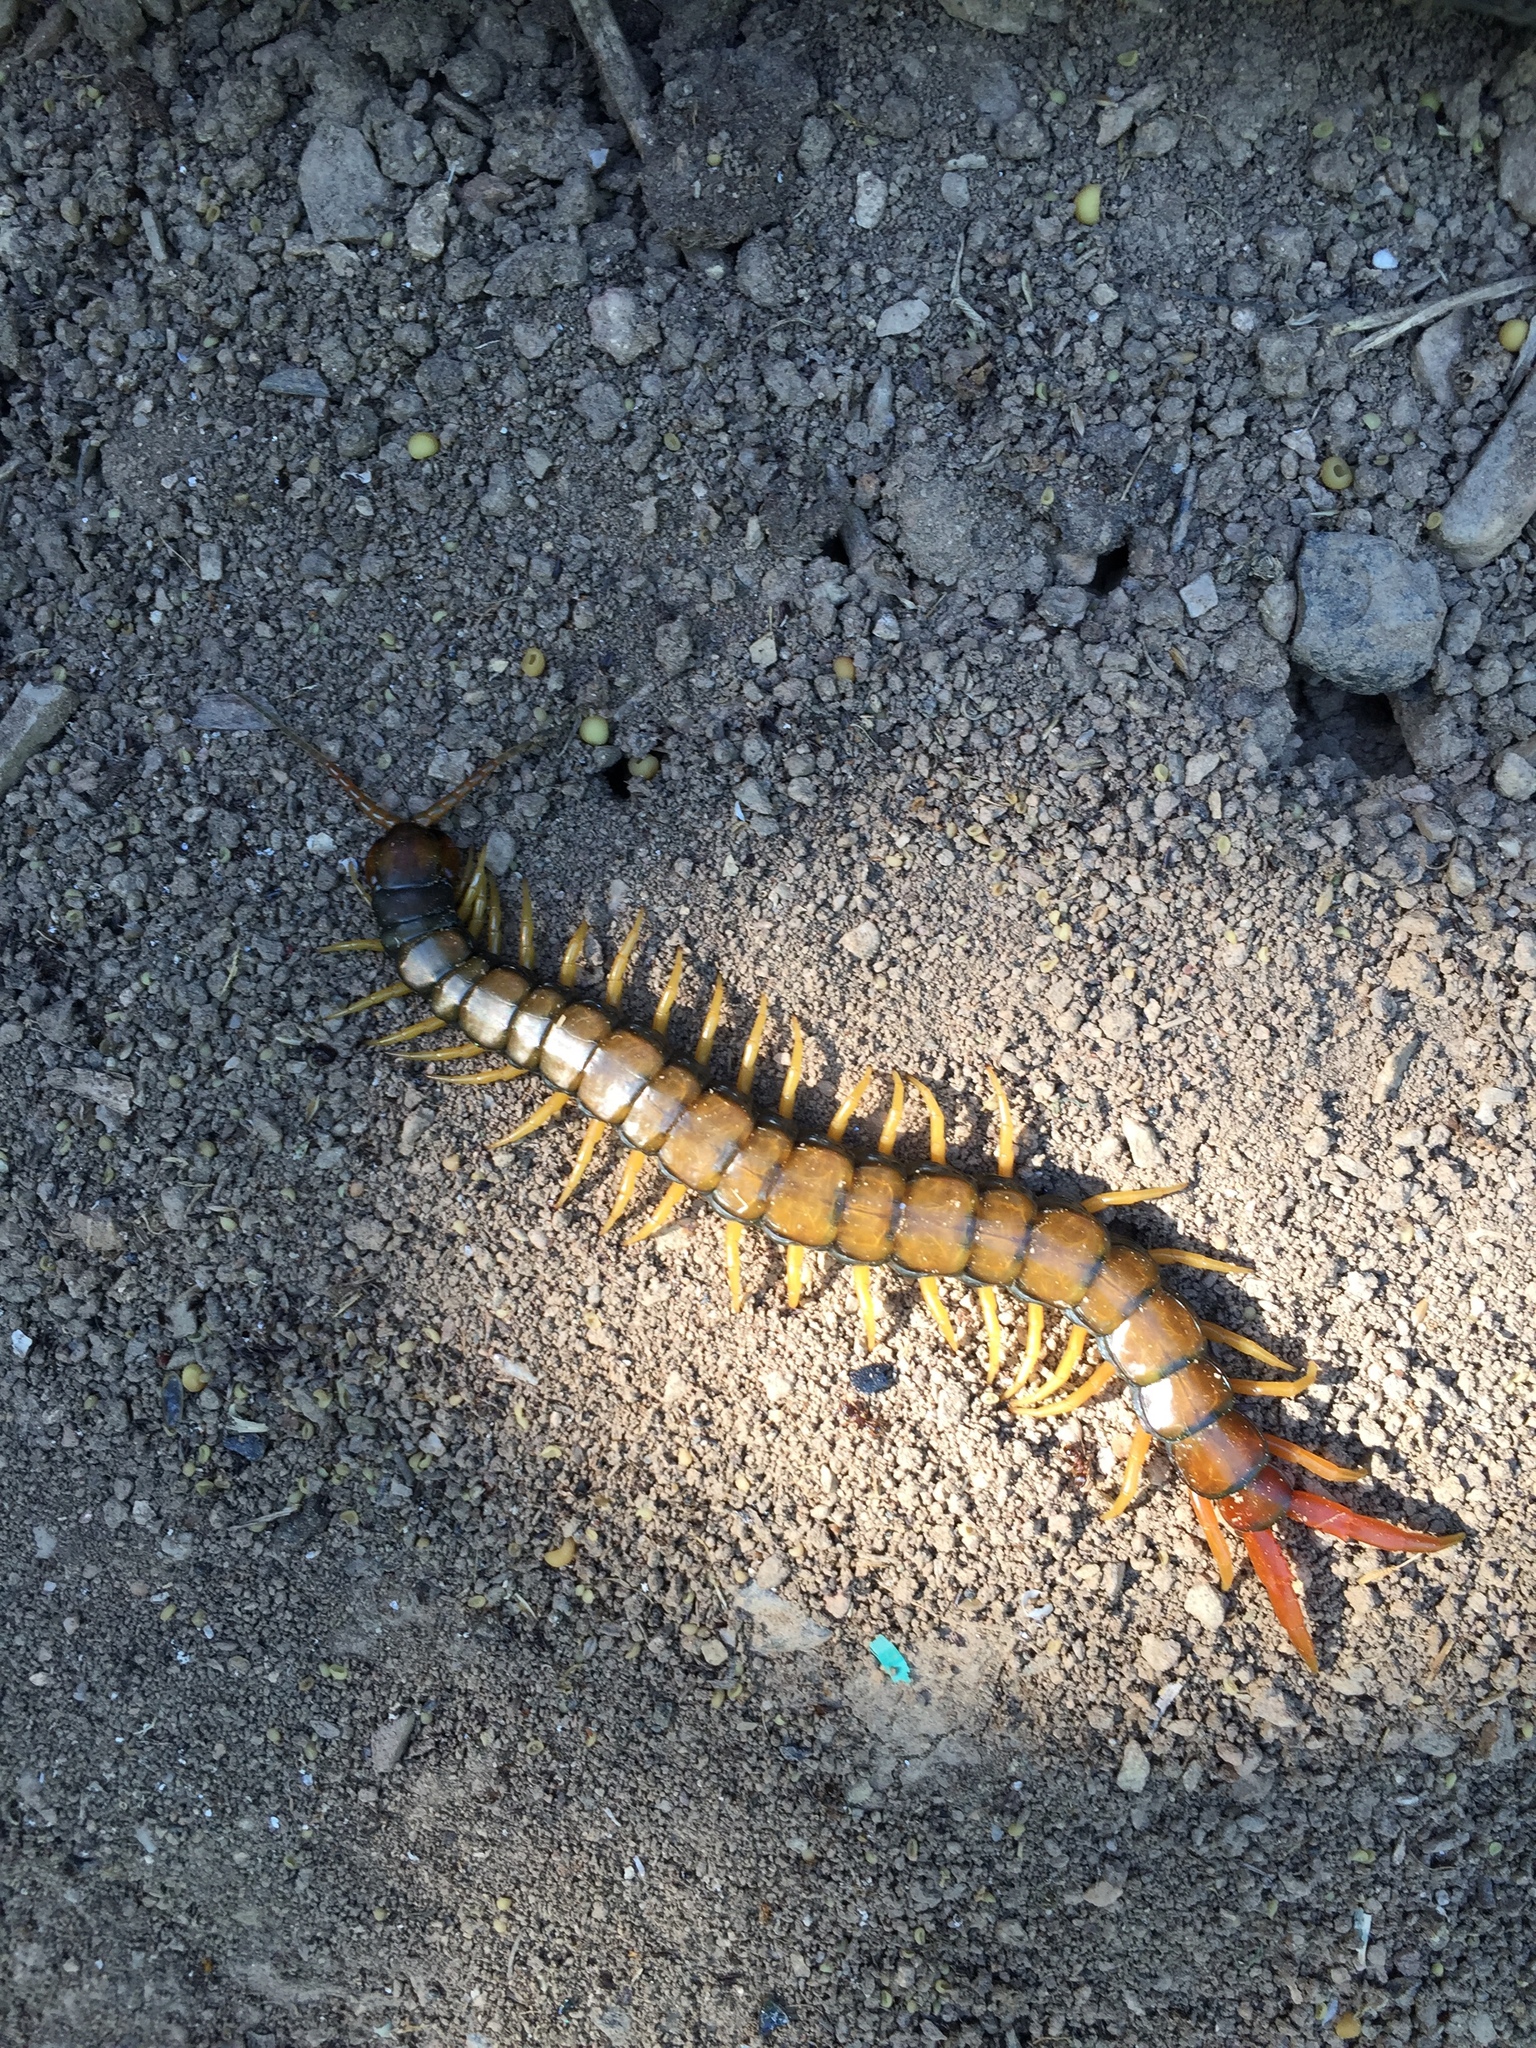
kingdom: Animalia
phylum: Arthropoda
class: Chilopoda
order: Scolopendromorpha
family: Scolopendridae
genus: Scolopendra
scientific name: Scolopendra cingulata
